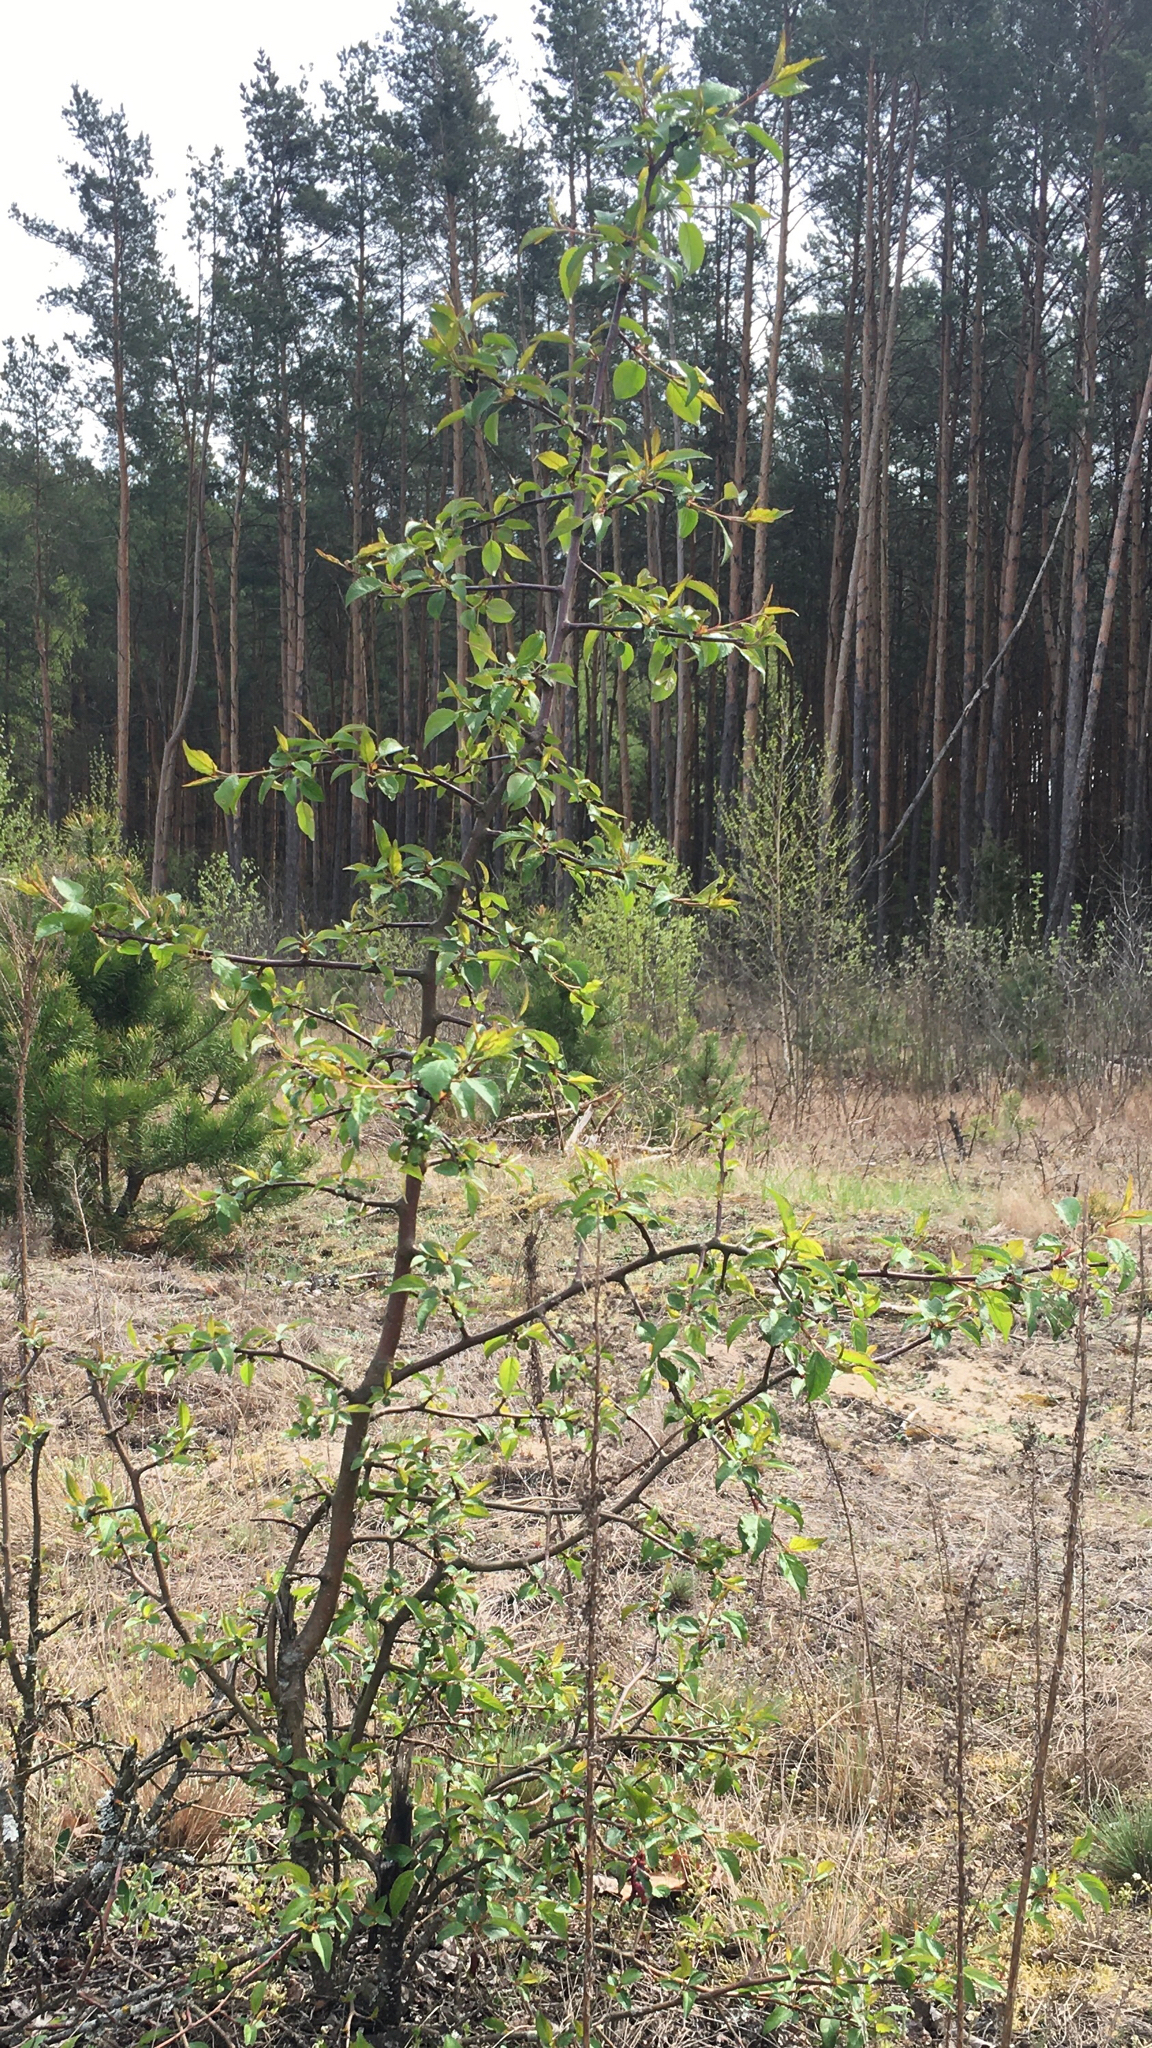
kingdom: Plantae
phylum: Tracheophyta
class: Magnoliopsida
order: Rosales
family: Rosaceae
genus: Malus
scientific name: Malus sylvestris
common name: Crab apple
